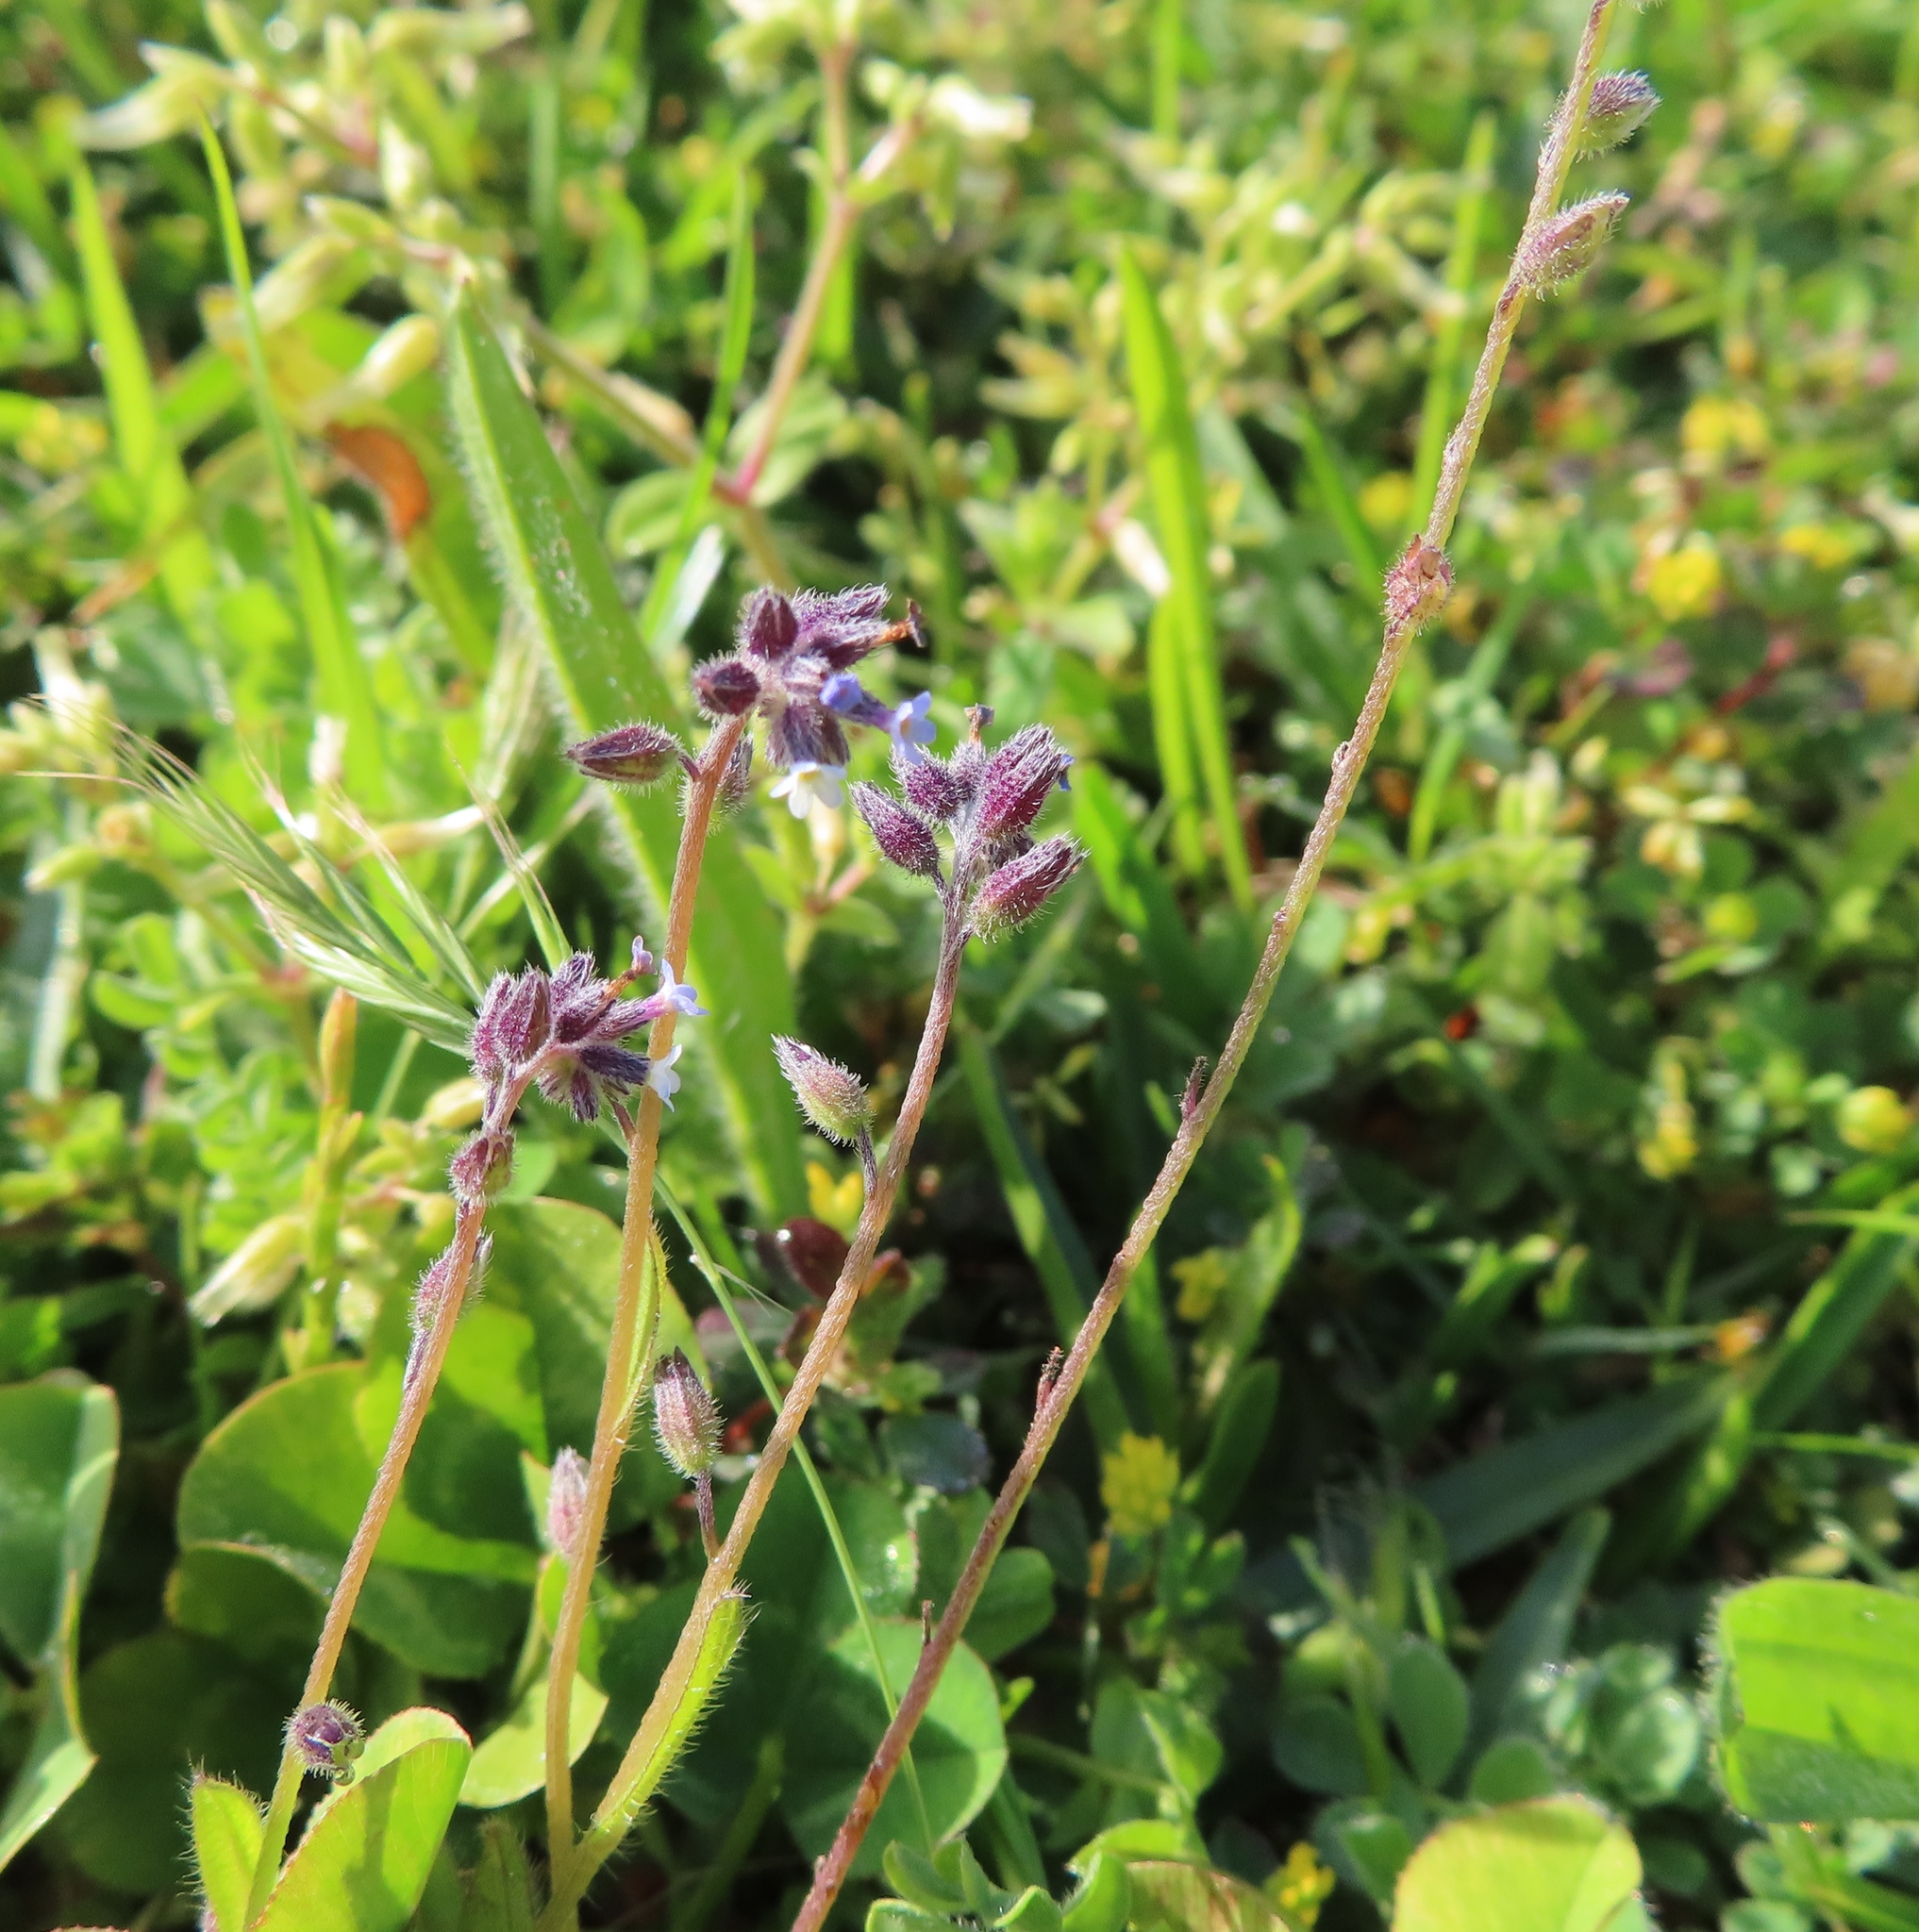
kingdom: Plantae
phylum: Tracheophyta
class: Magnoliopsida
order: Boraginales
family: Boraginaceae
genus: Myosotis
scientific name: Myosotis discolor
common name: Changing forget-me-not
